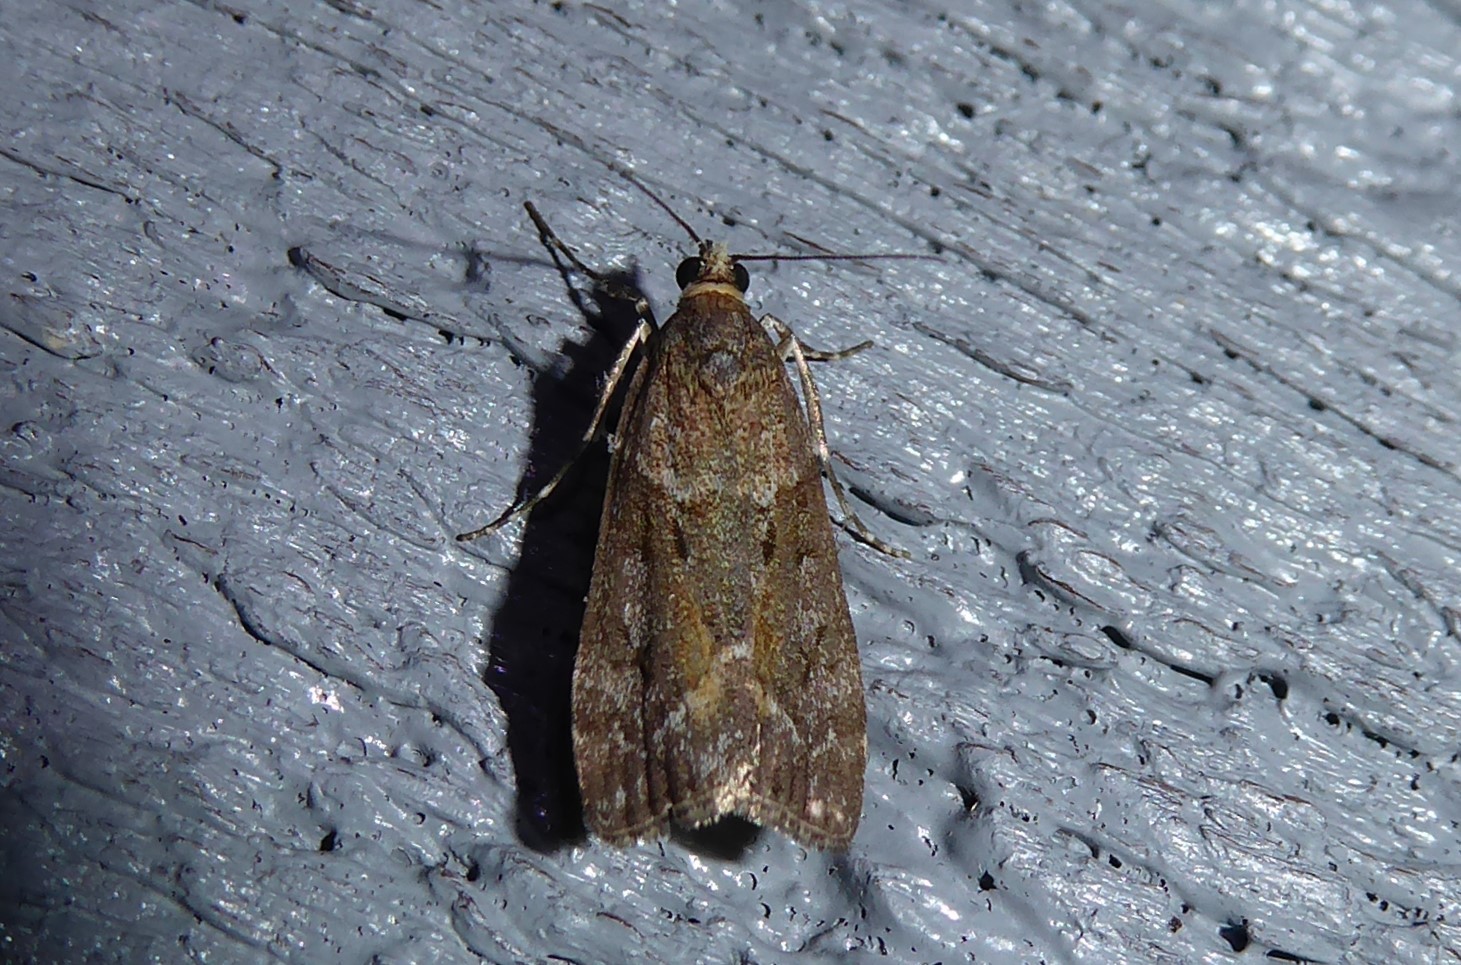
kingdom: Animalia
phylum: Arthropoda
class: Insecta
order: Lepidoptera
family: Crambidae
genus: Eudonia
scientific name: Eudonia submarginalis
